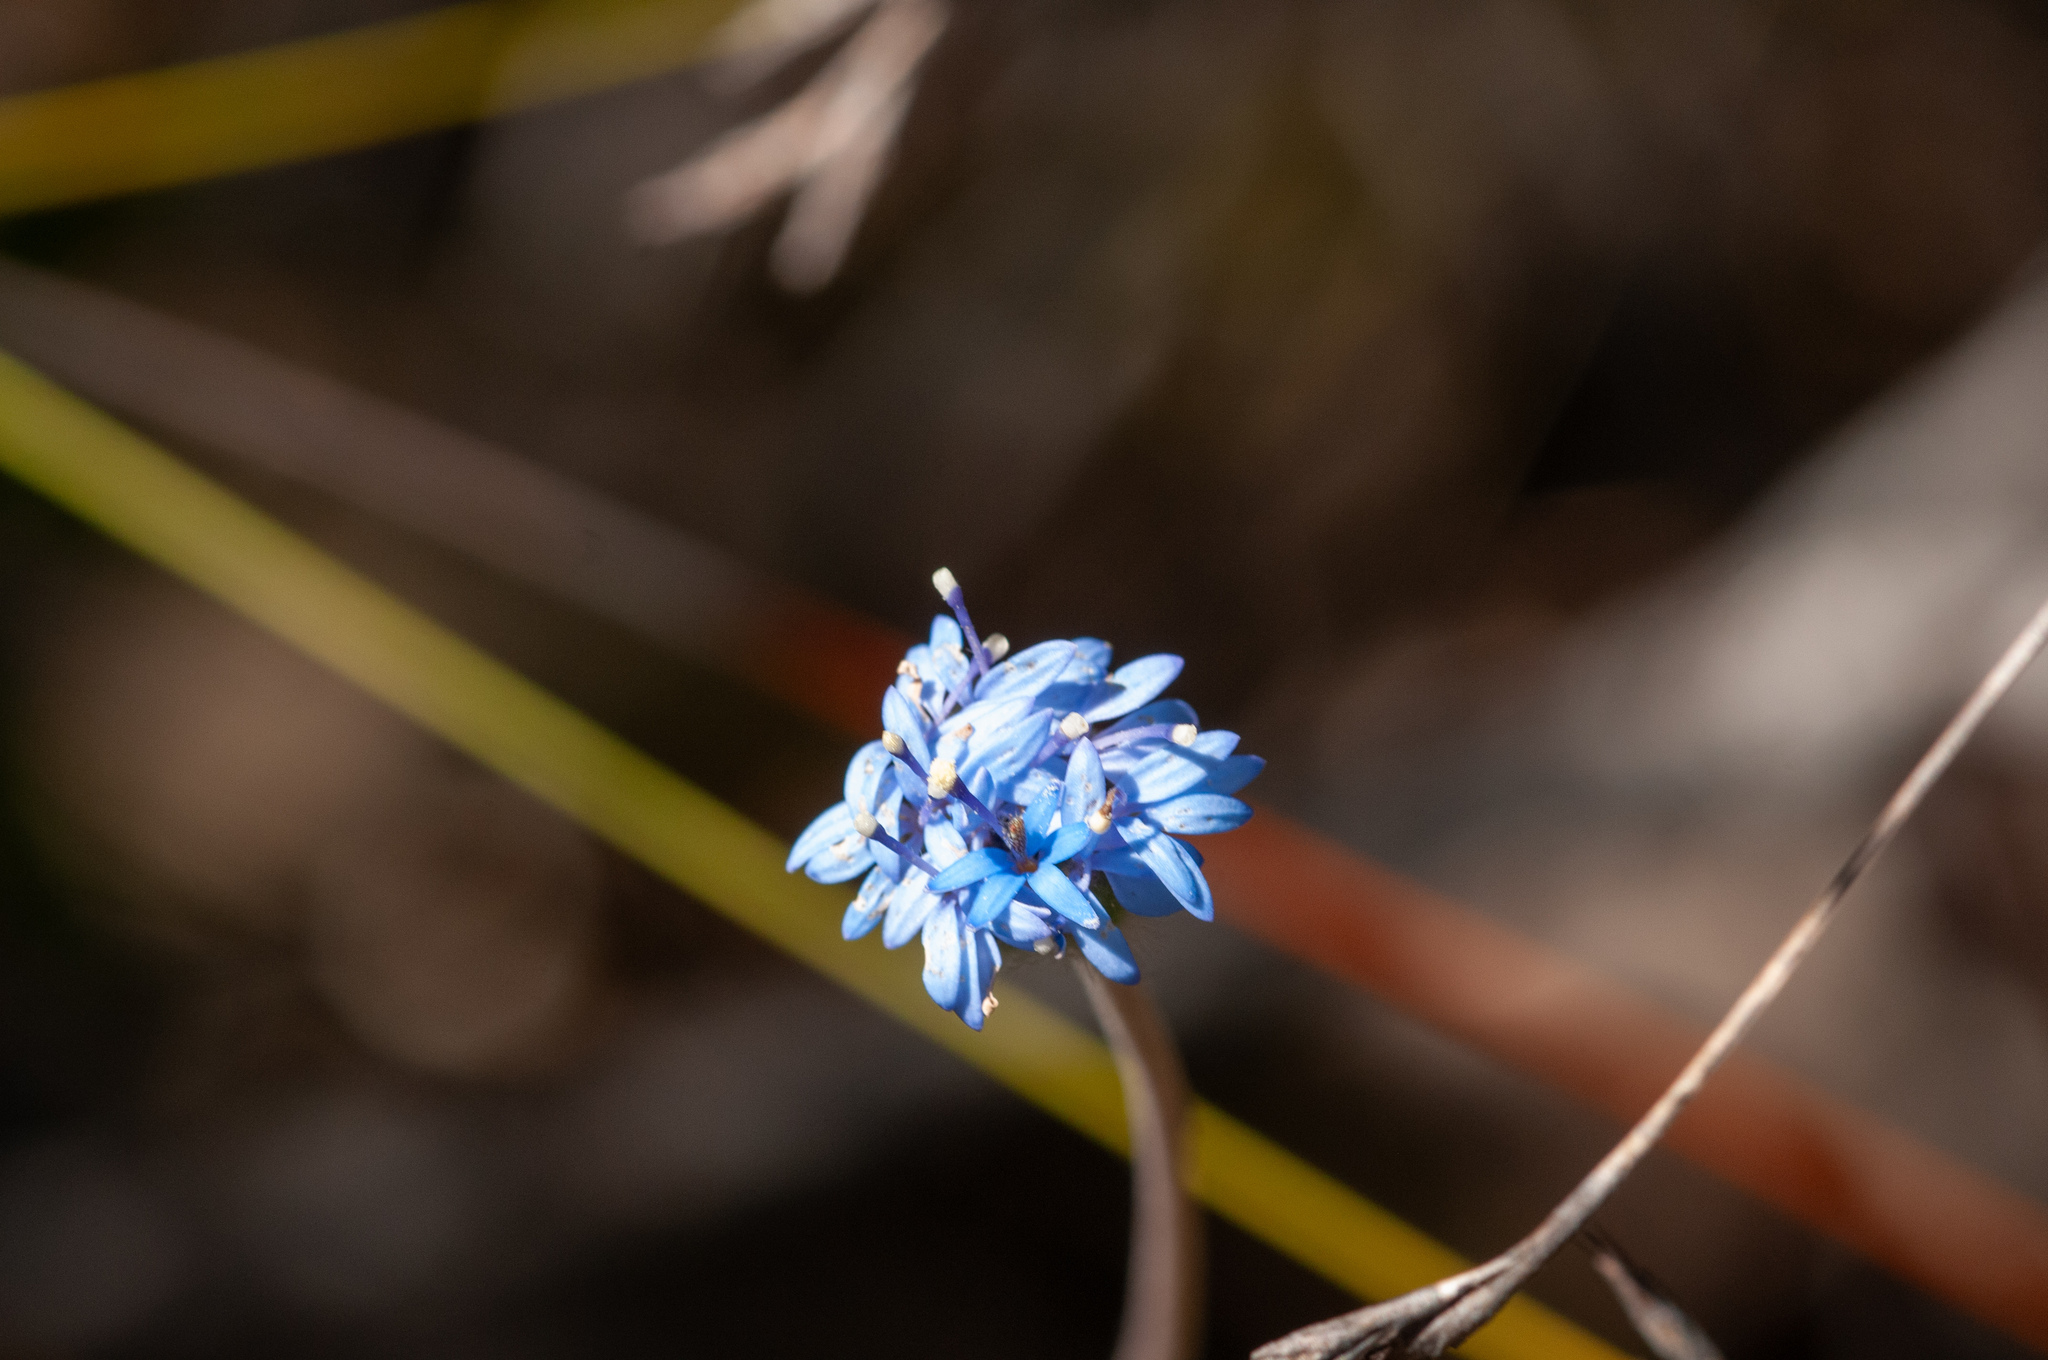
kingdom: Plantae
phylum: Tracheophyta
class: Magnoliopsida
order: Asterales
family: Goodeniaceae
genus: Brunonia
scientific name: Brunonia australis
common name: Blue pincushion
